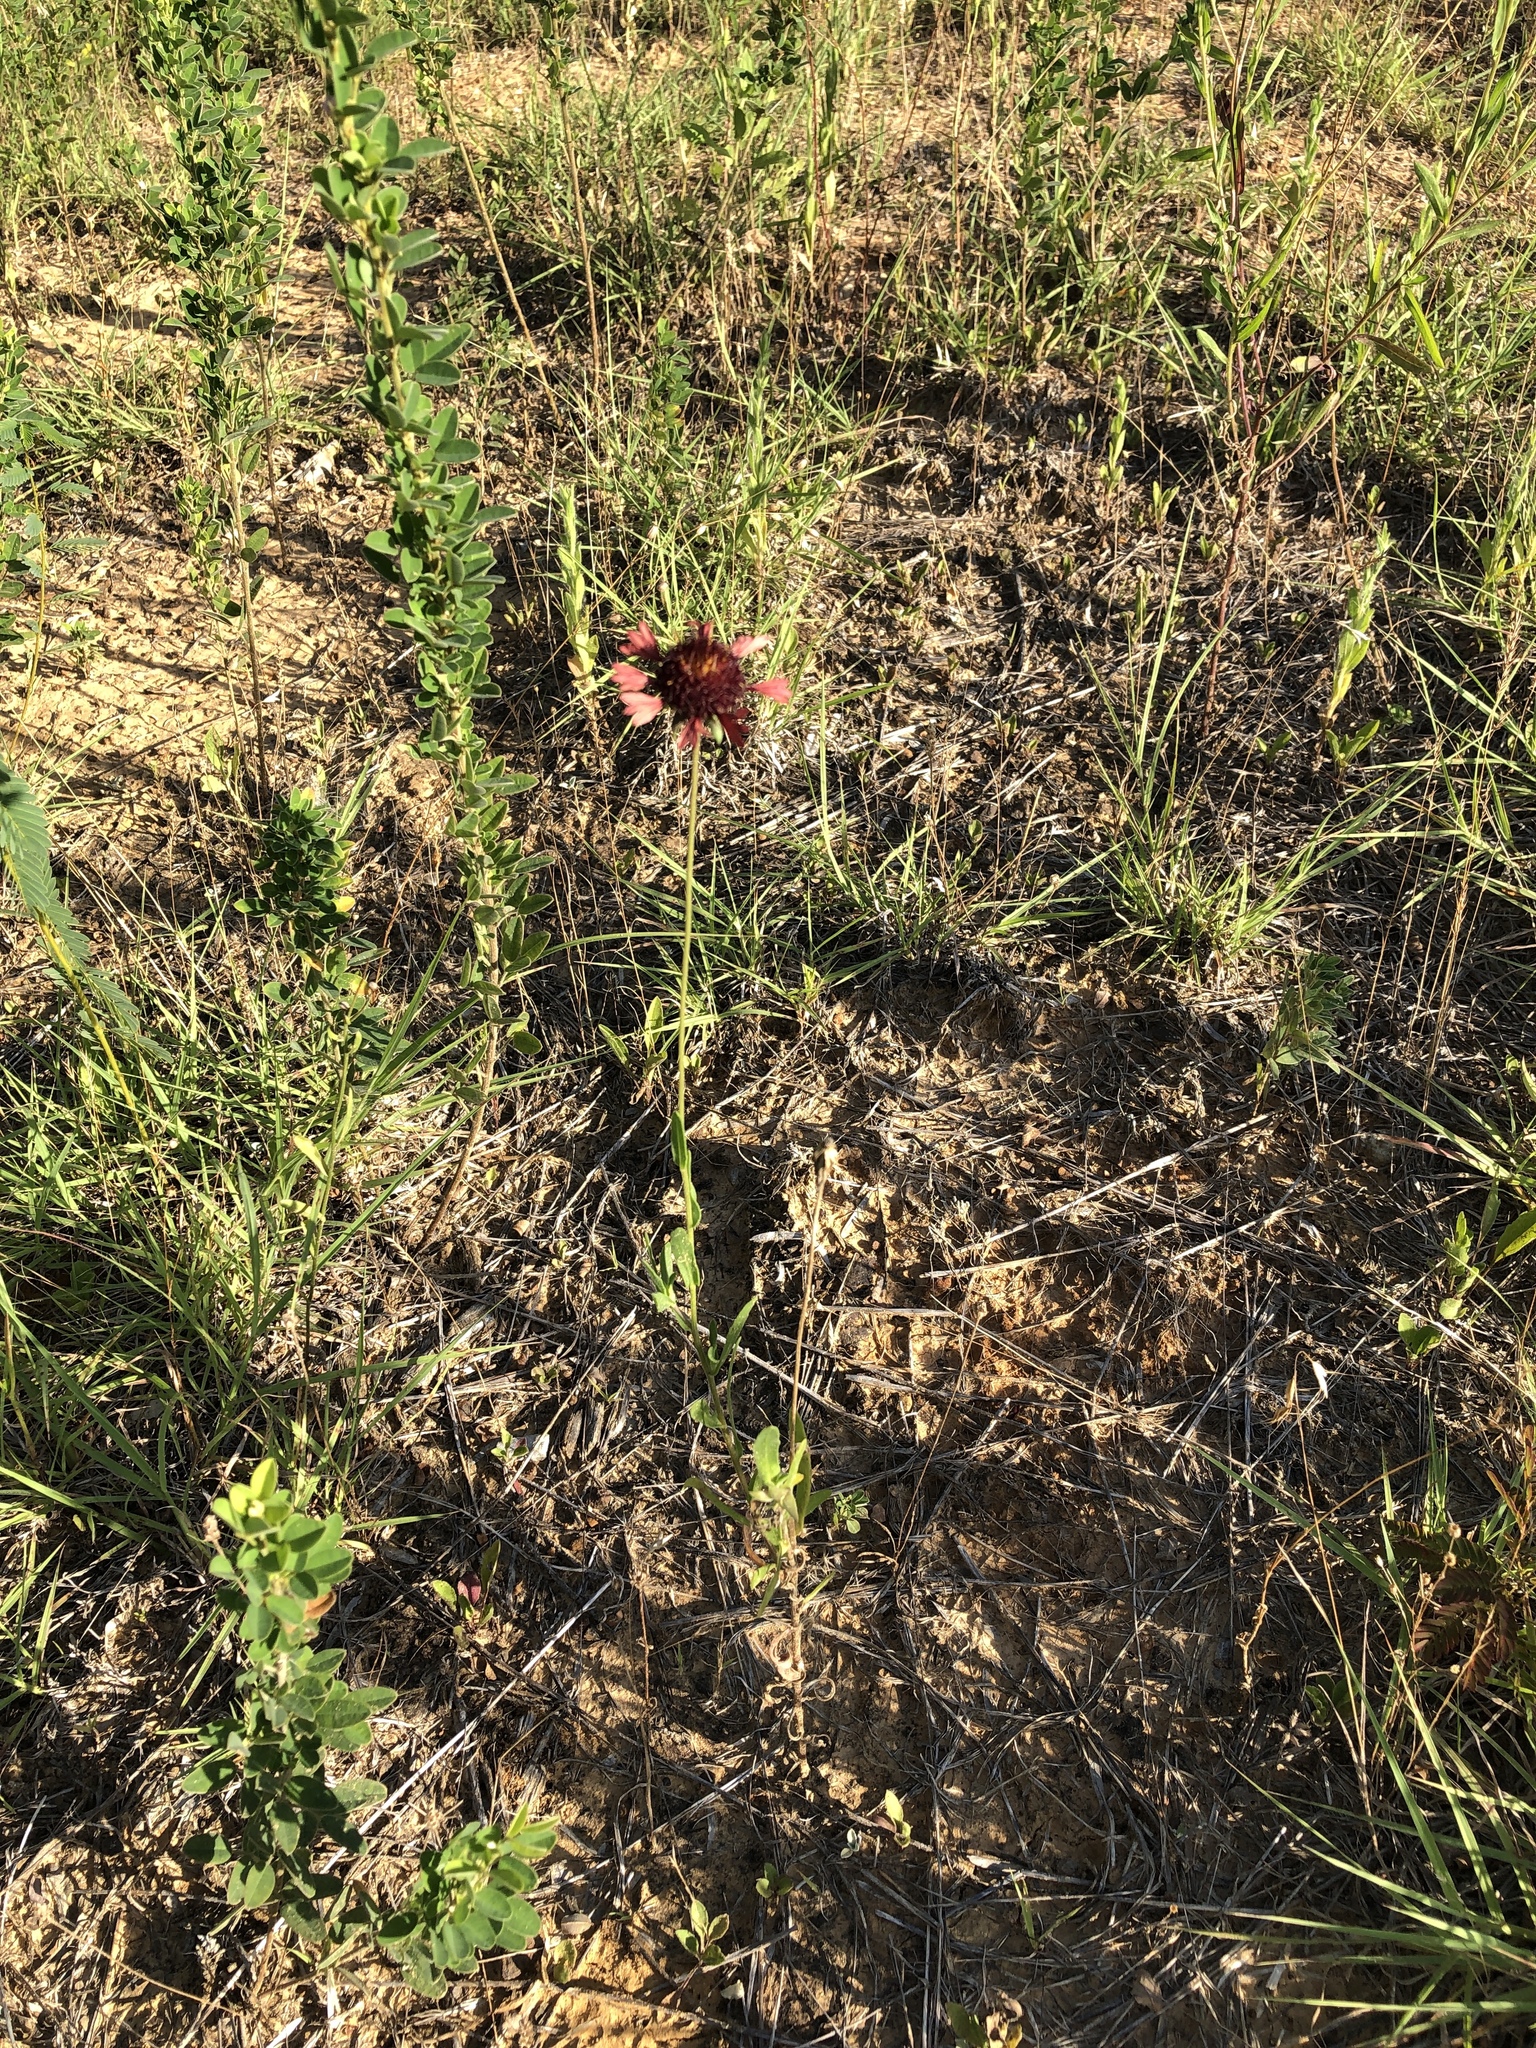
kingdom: Plantae
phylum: Tracheophyta
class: Magnoliopsida
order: Asterales
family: Asteraceae
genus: Gaillardia
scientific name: Gaillardia aestivalis
